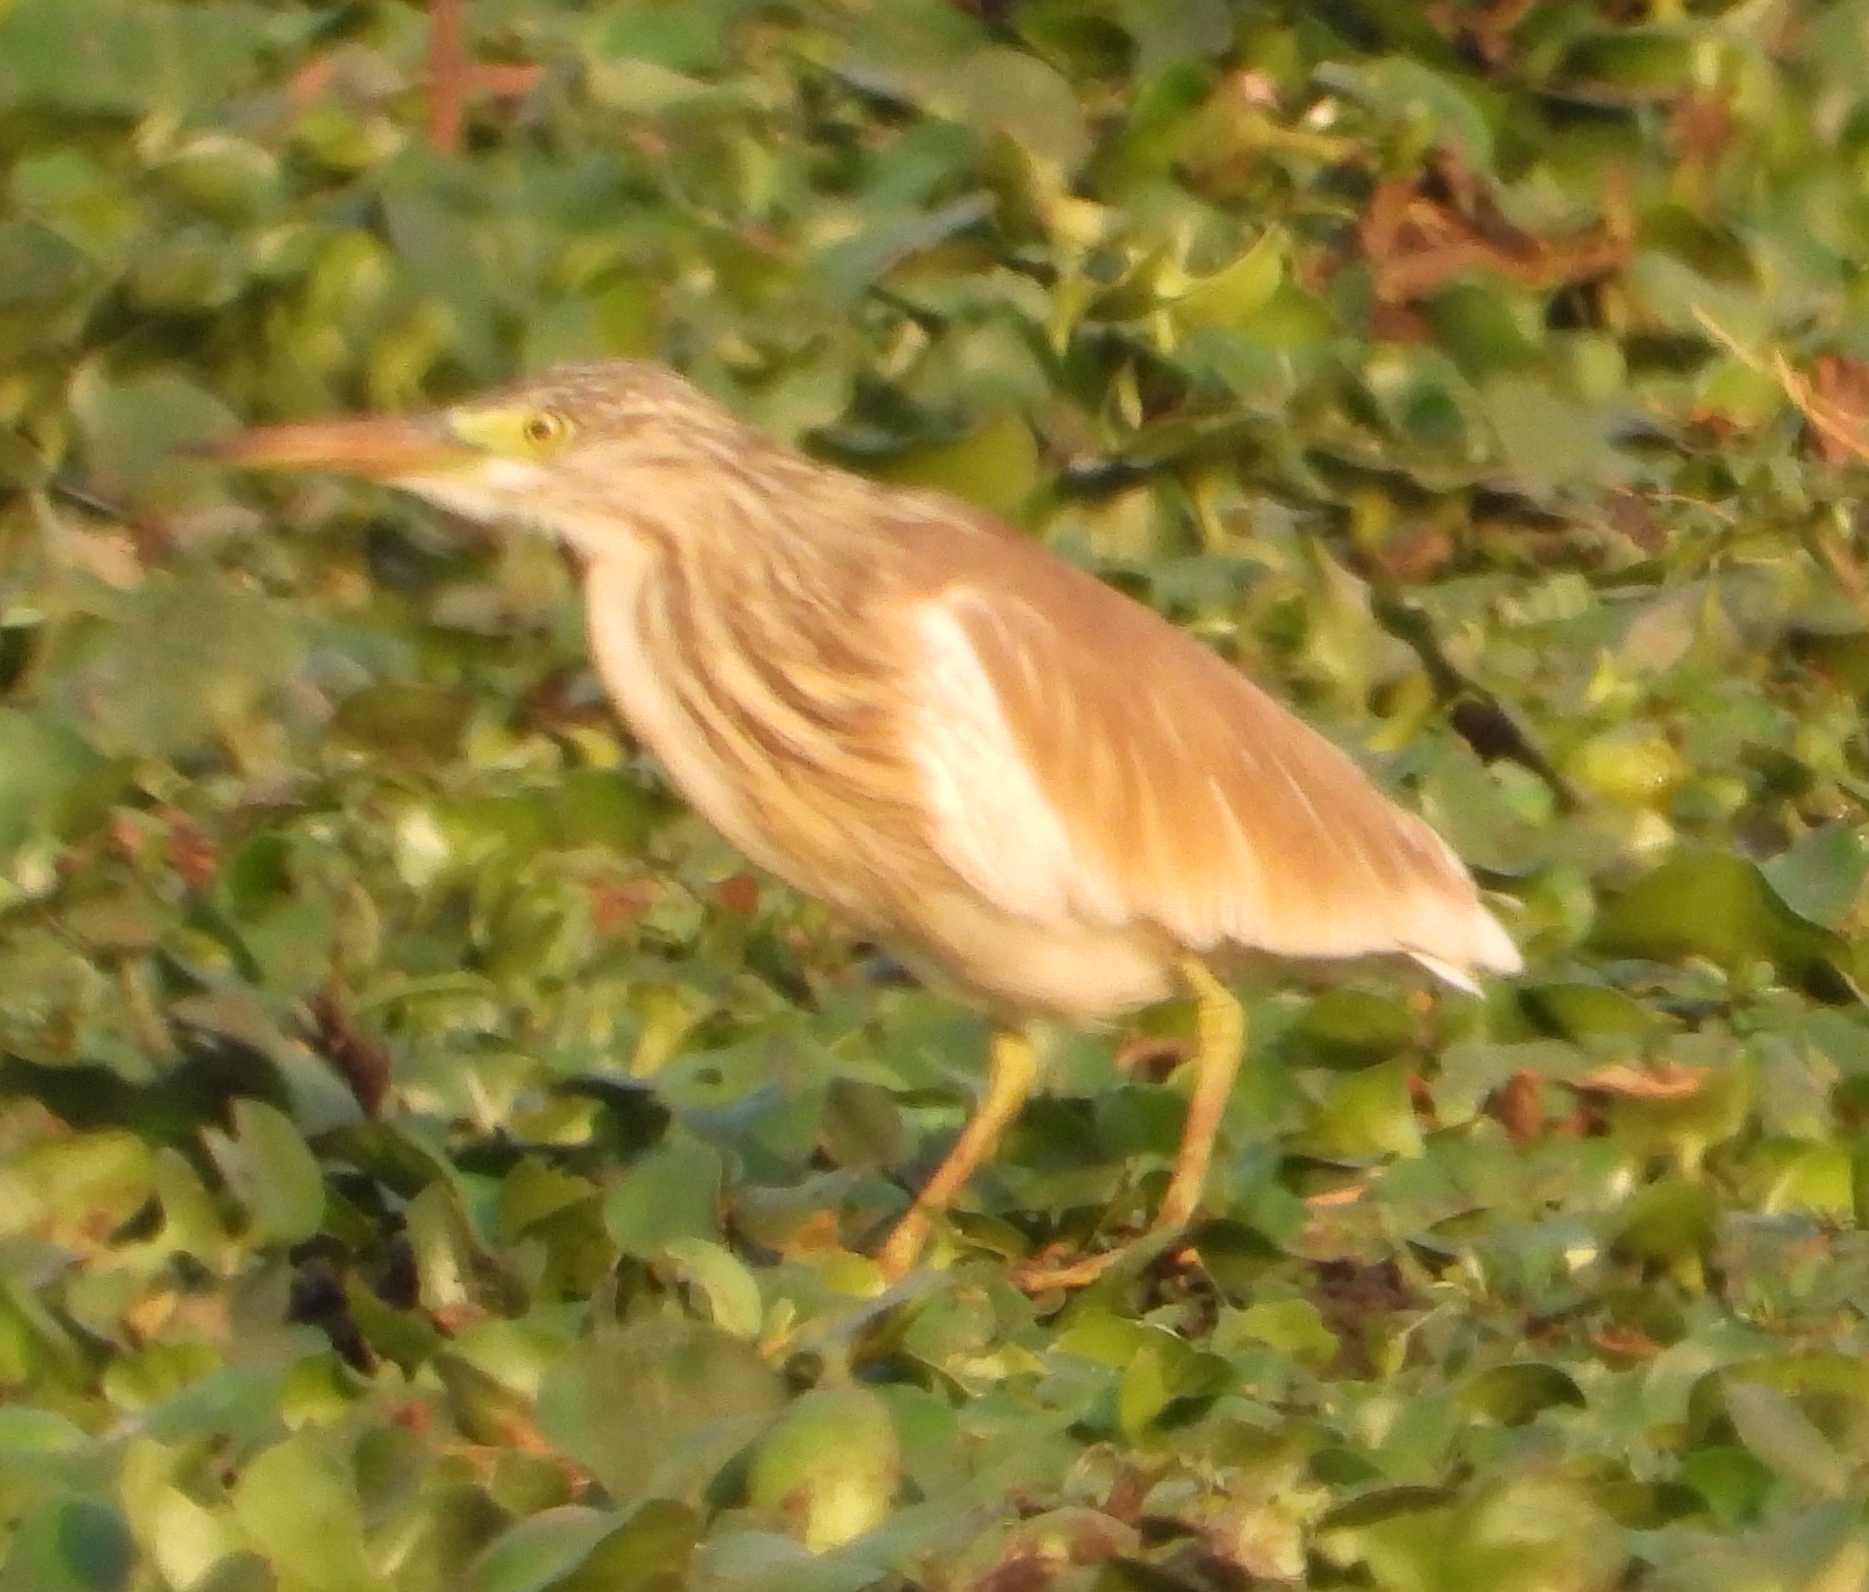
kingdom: Animalia
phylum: Chordata
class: Aves
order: Pelecaniformes
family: Ardeidae
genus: Ardeola
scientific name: Ardeola ralloides
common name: Squacco heron
